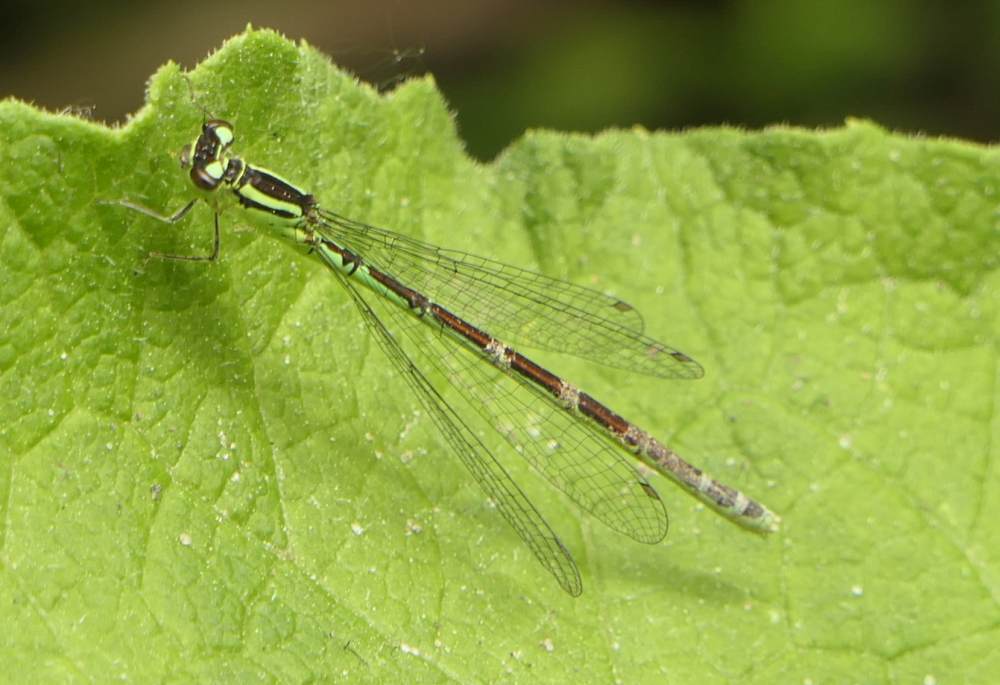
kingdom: Animalia
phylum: Arthropoda
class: Insecta
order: Odonata
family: Coenagrionidae
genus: Coenagrion
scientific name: Coenagrion resolutum
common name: Taiga bluet
